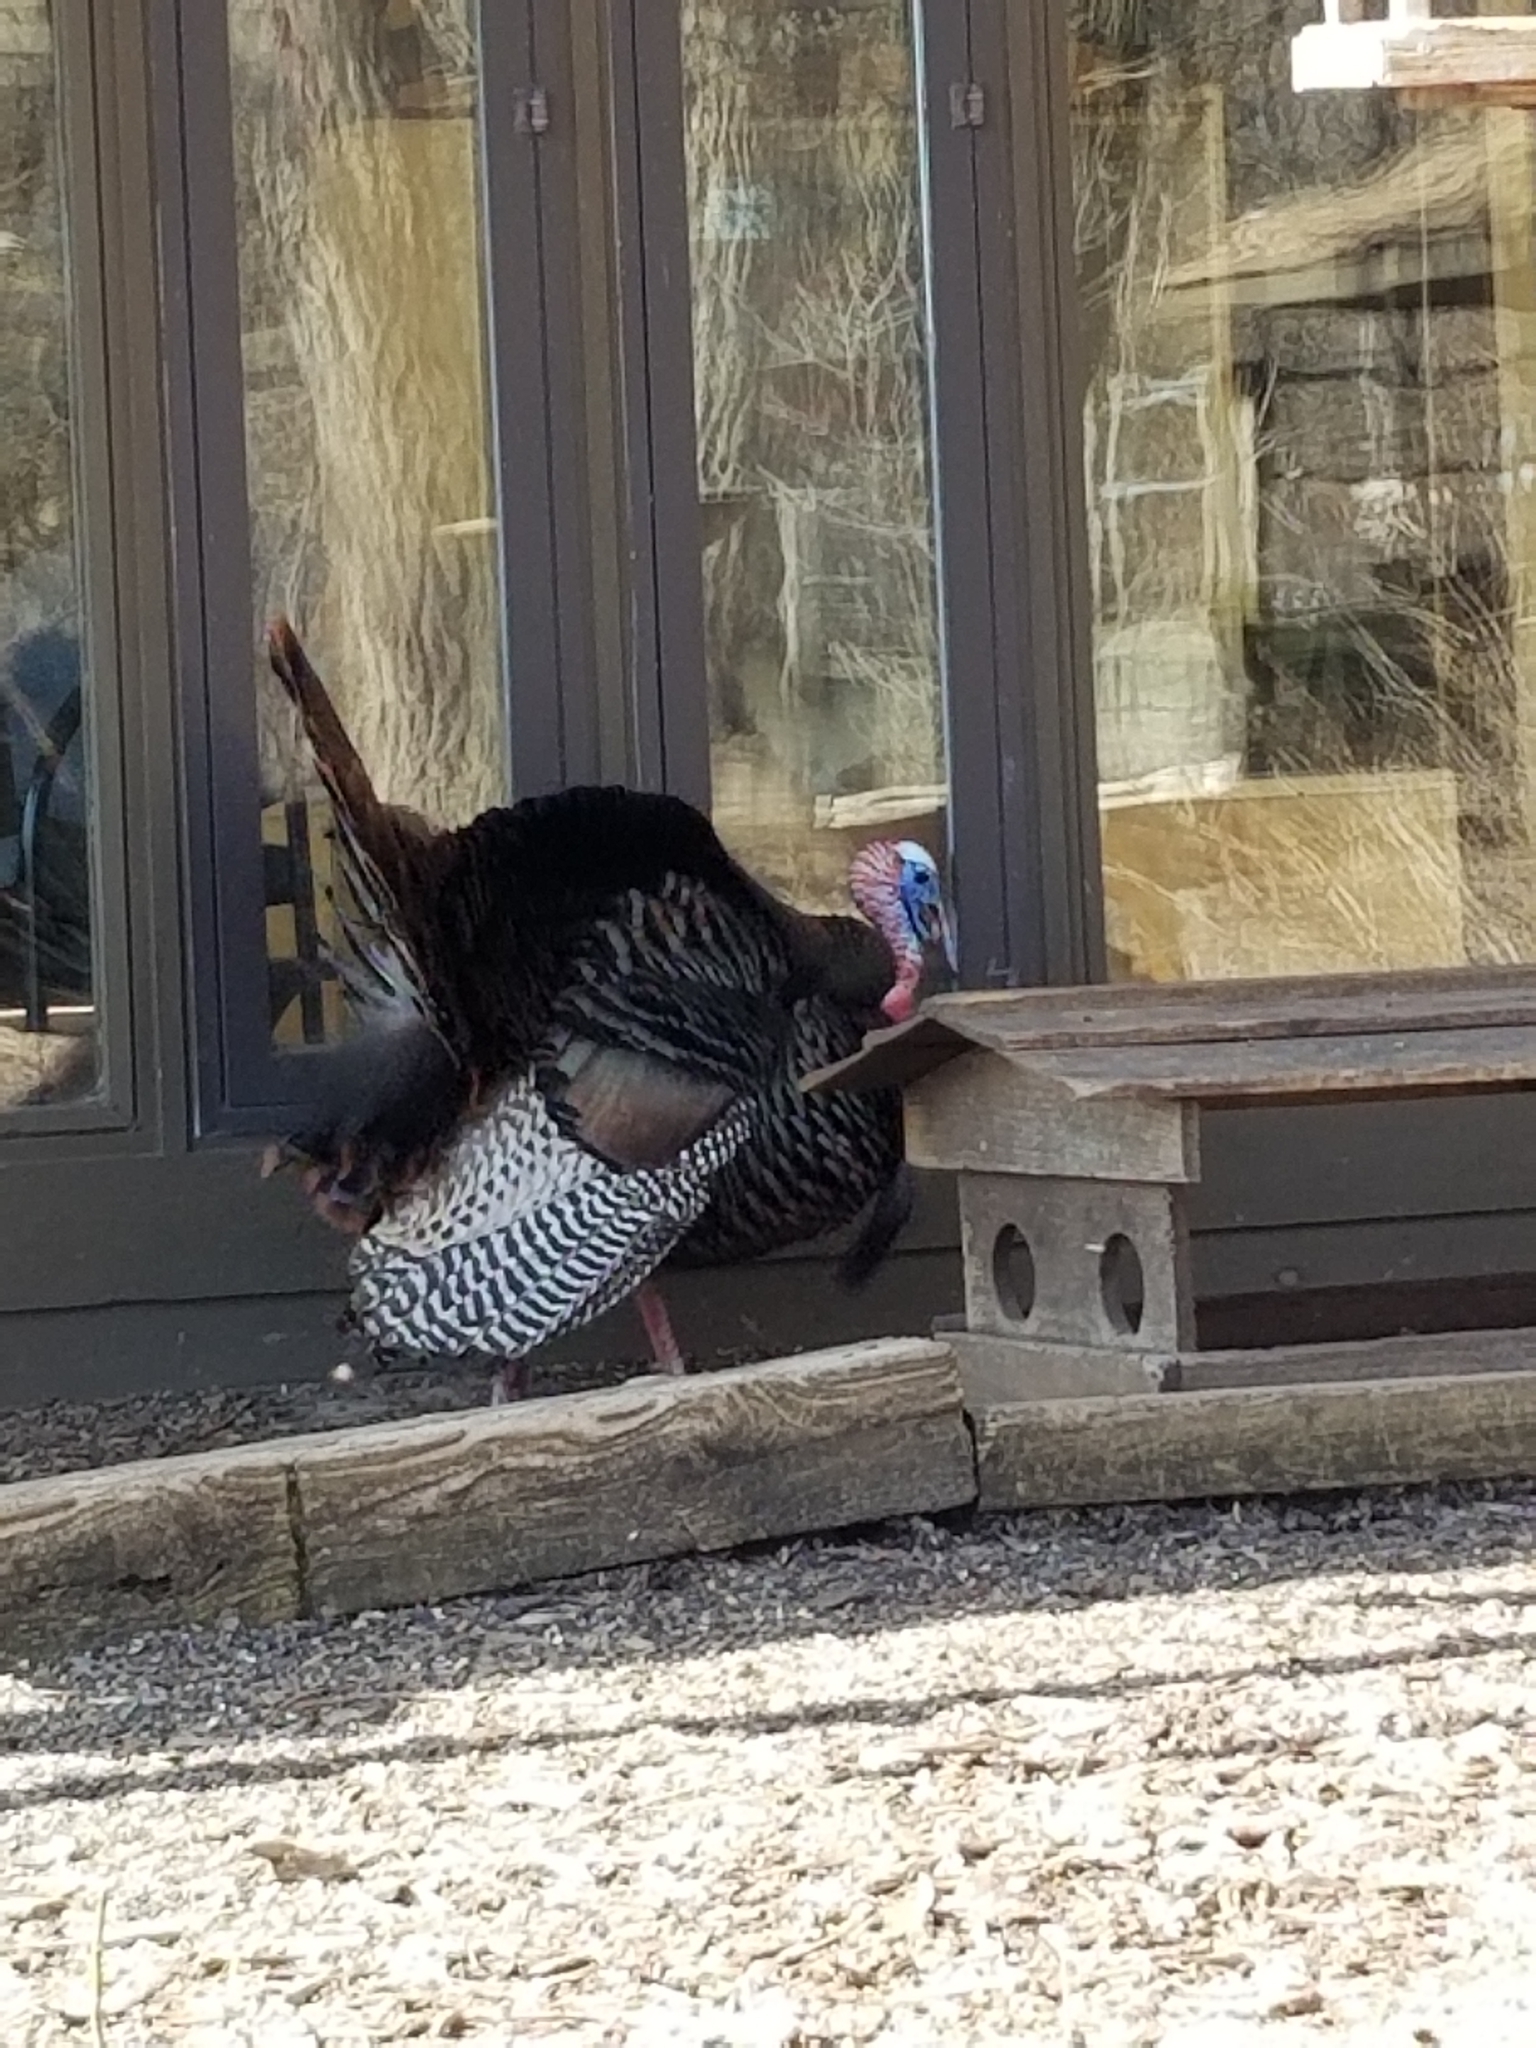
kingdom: Animalia
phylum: Chordata
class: Aves
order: Galliformes
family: Phasianidae
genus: Meleagris
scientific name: Meleagris gallopavo
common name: Wild turkey
